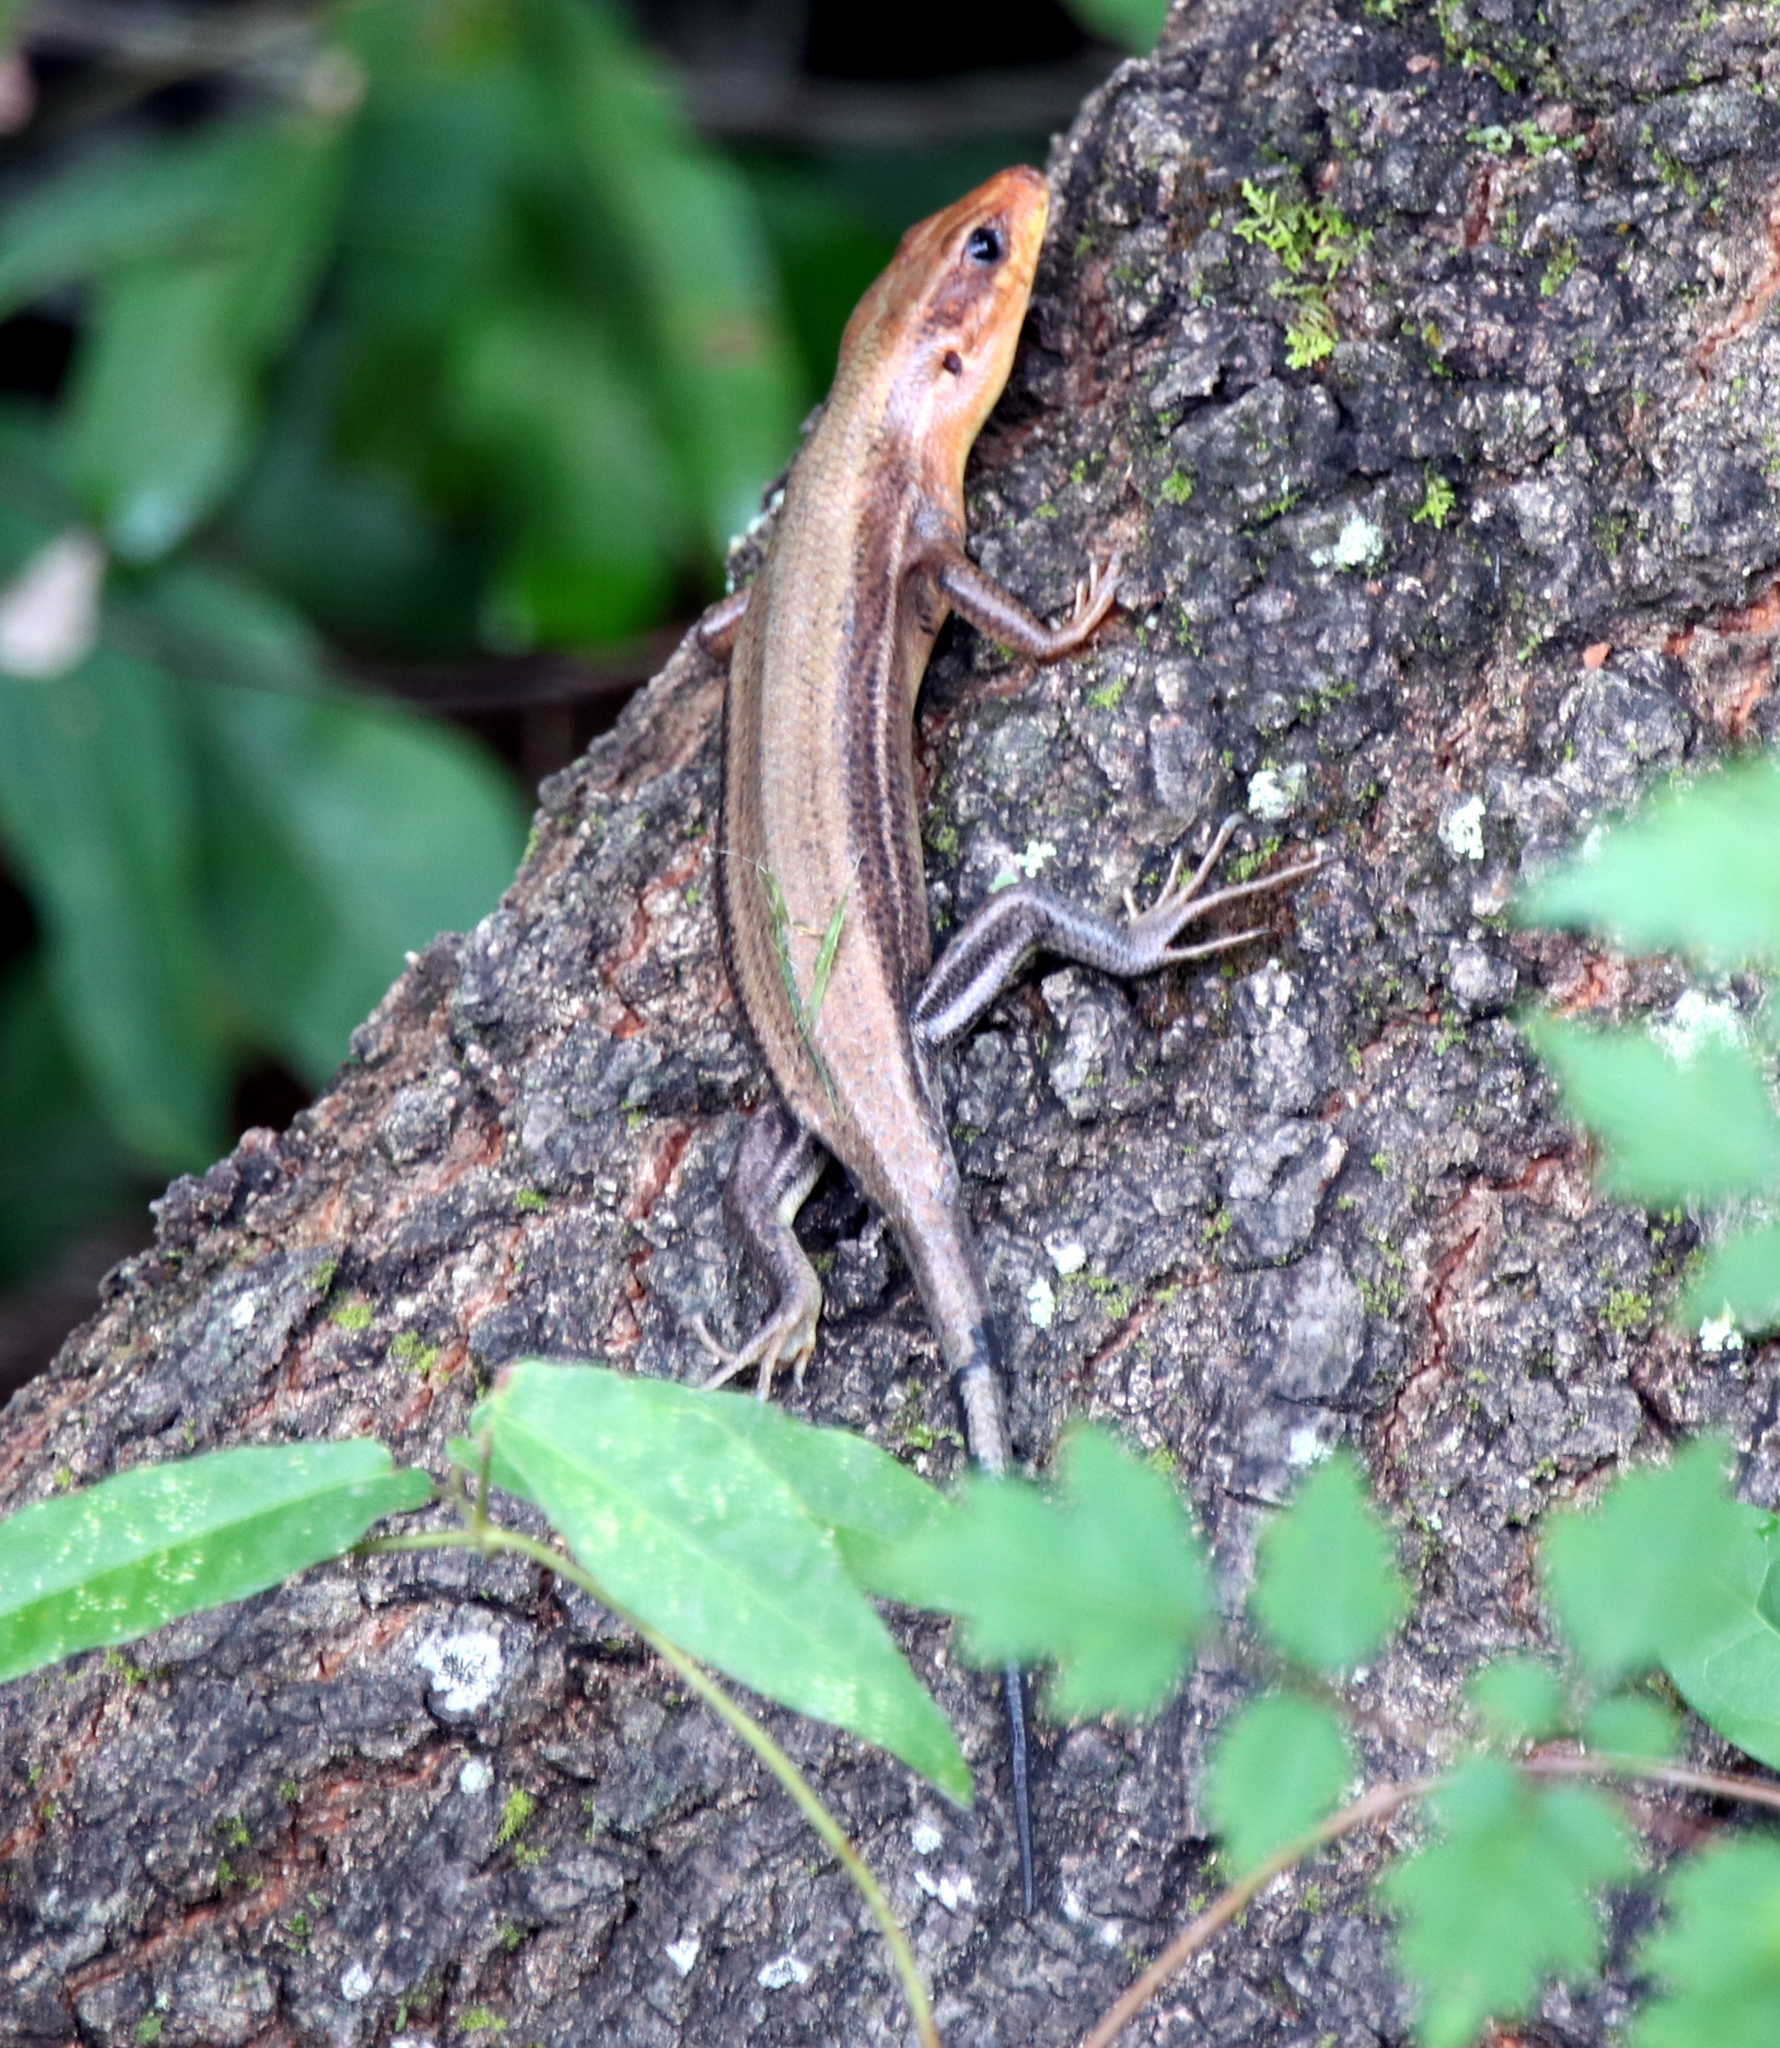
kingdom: Animalia
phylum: Chordata
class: Squamata
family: Scincidae
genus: Plestiodon
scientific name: Plestiodon laticeps
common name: Broadhead skink
